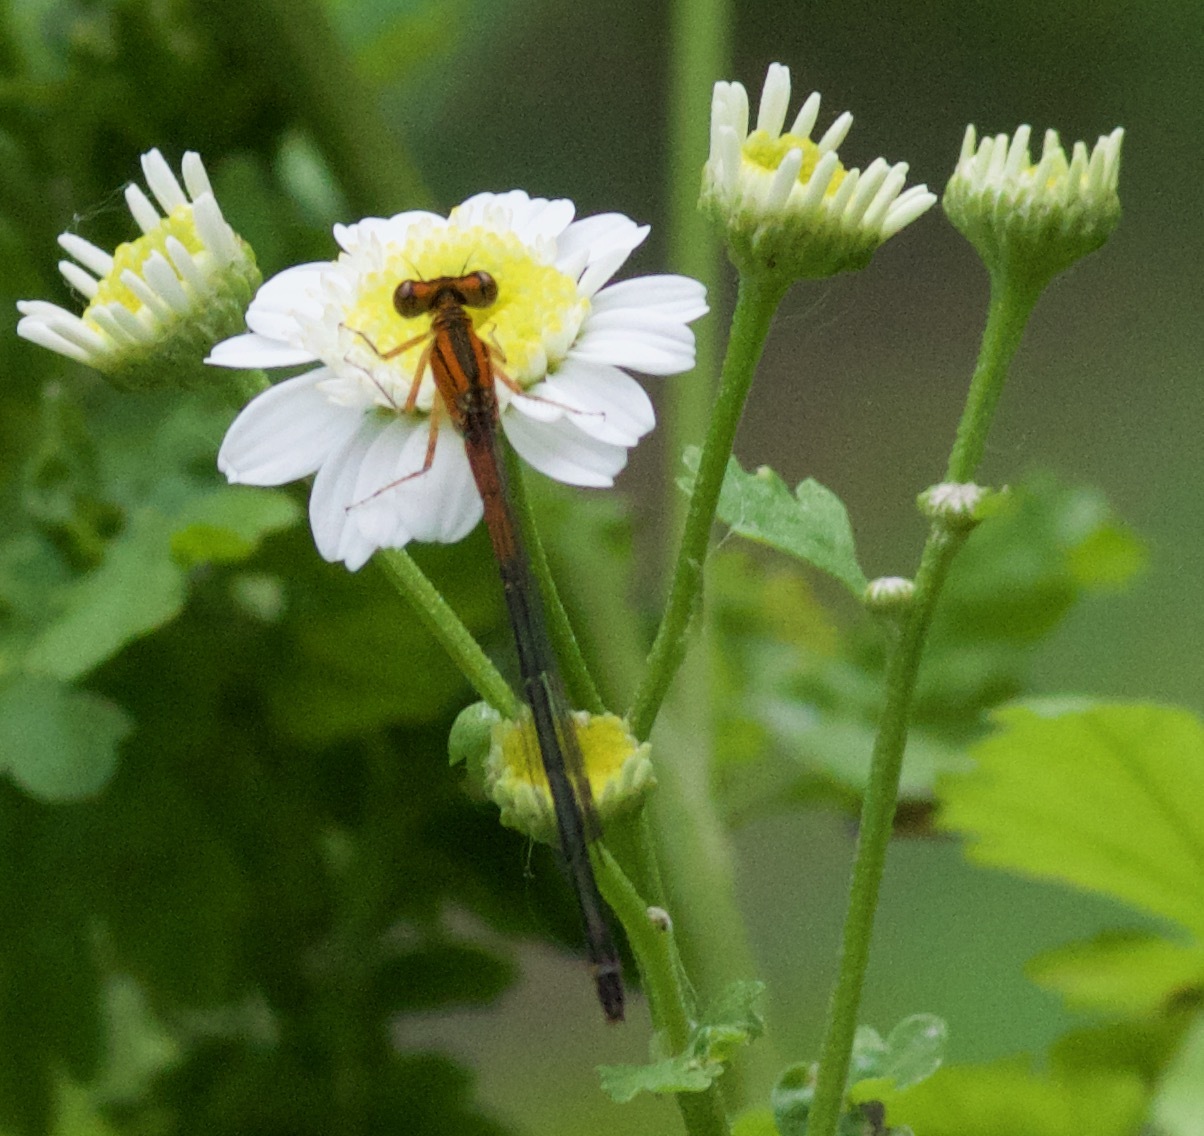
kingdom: Animalia
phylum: Arthropoda
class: Insecta
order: Odonata
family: Coenagrionidae
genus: Ischnura
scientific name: Ischnura verticalis
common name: Eastern forktail
